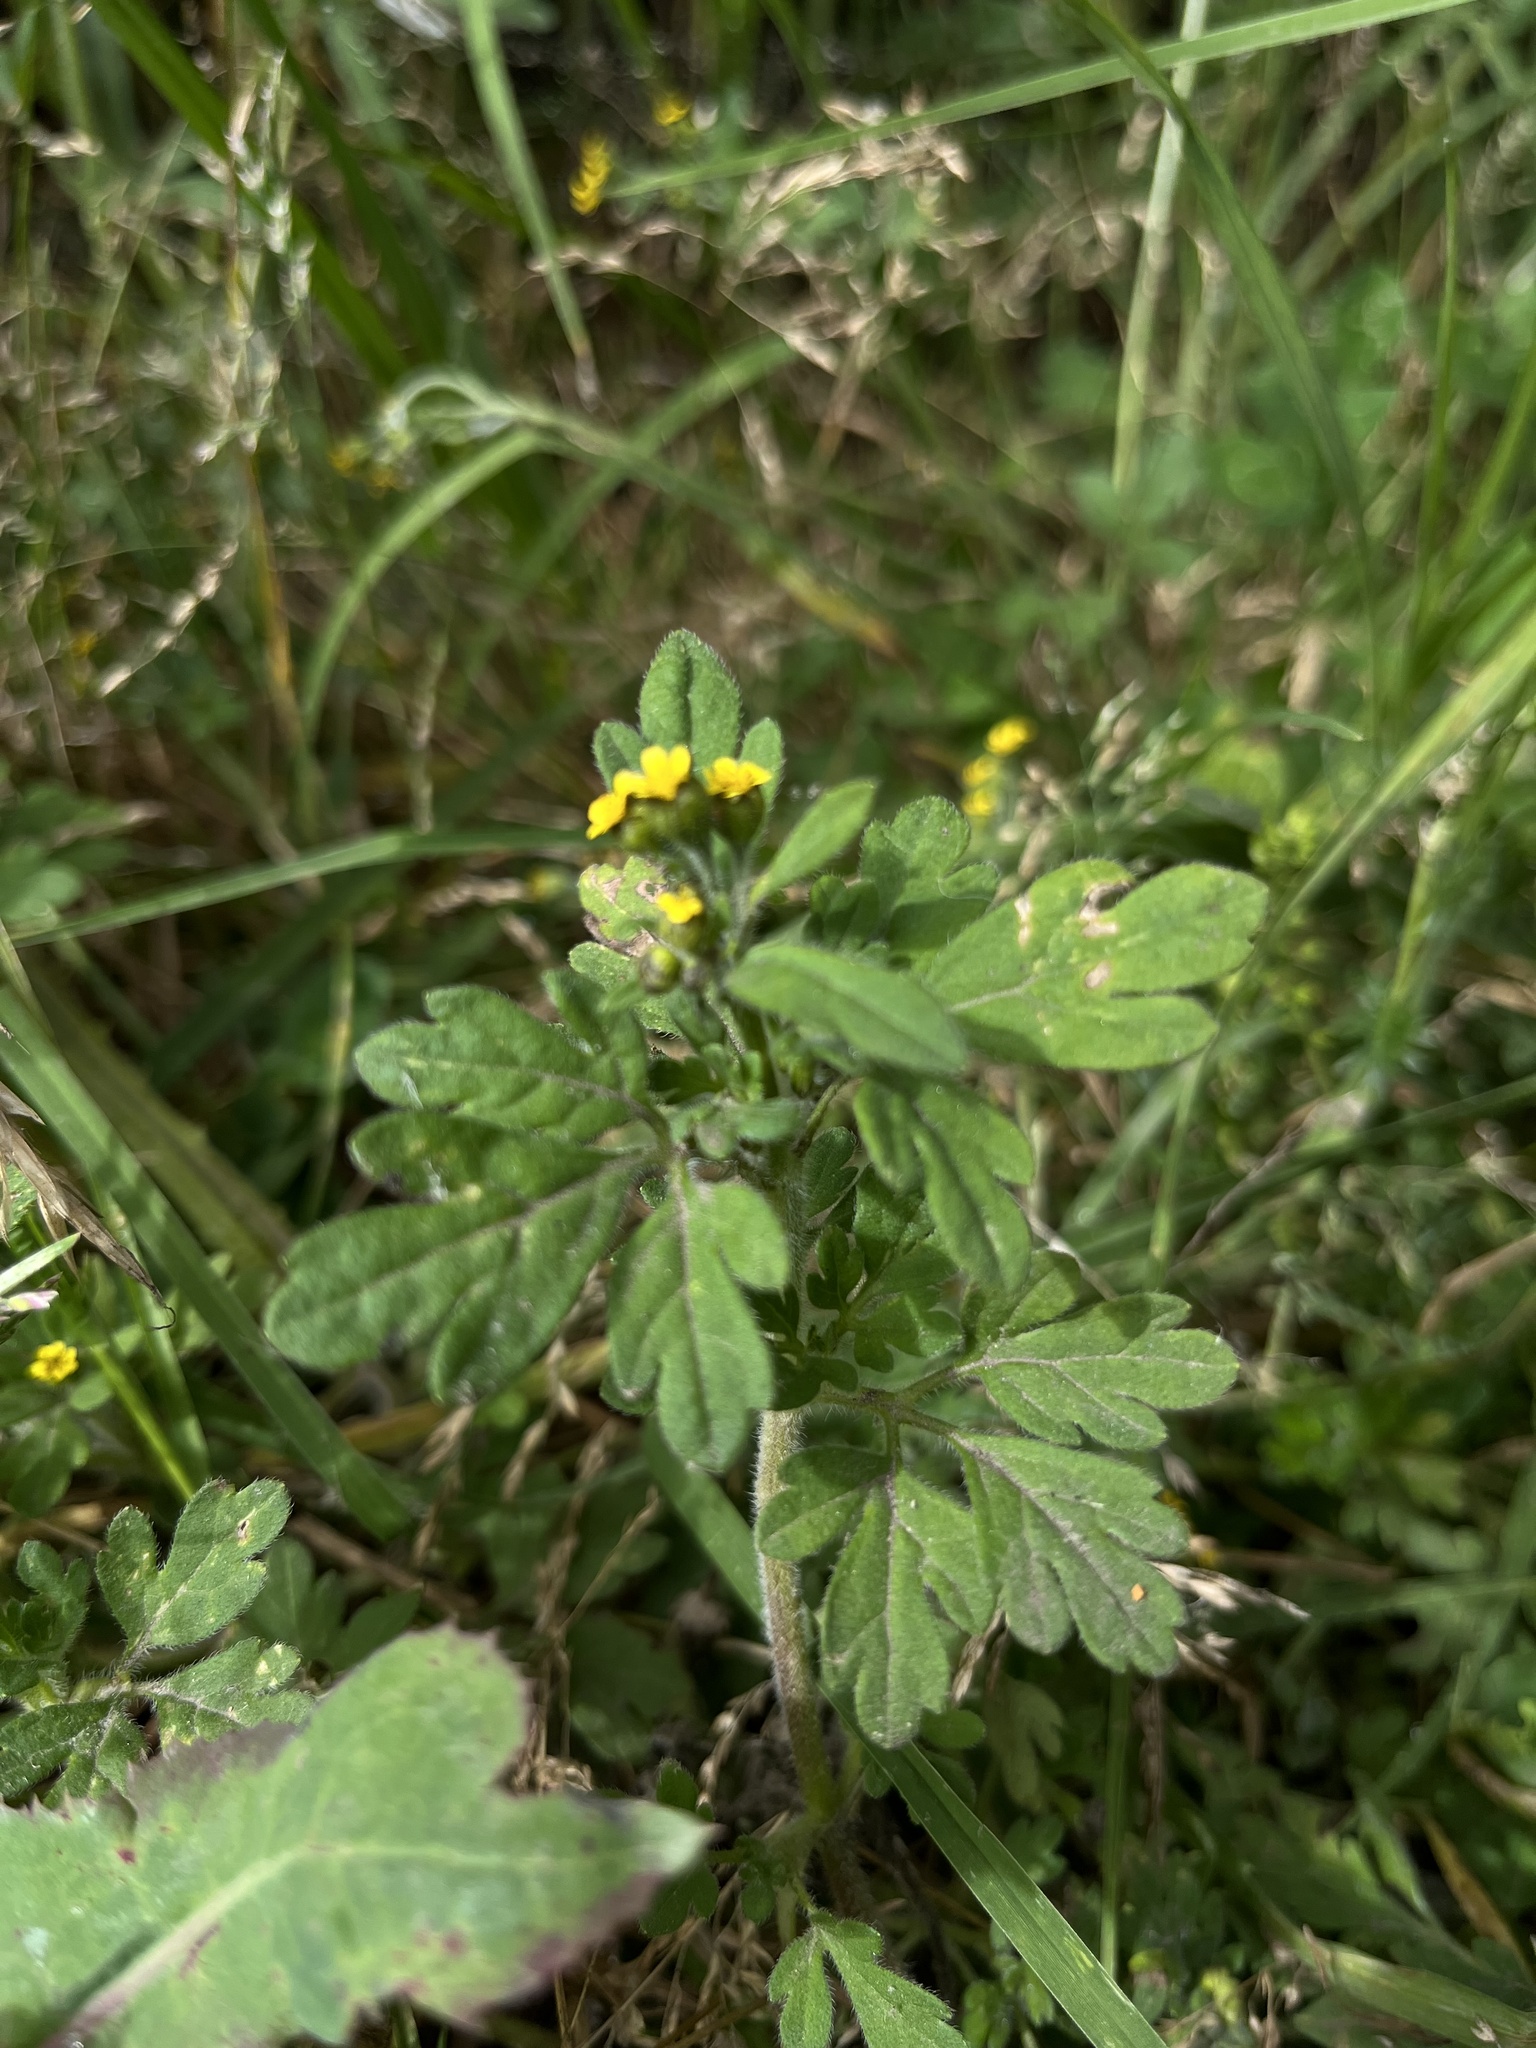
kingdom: Plantae
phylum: Tracheophyta
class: Magnoliopsida
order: Asterales
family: Asteraceae
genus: Villanova
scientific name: Villanova oppositifolia
